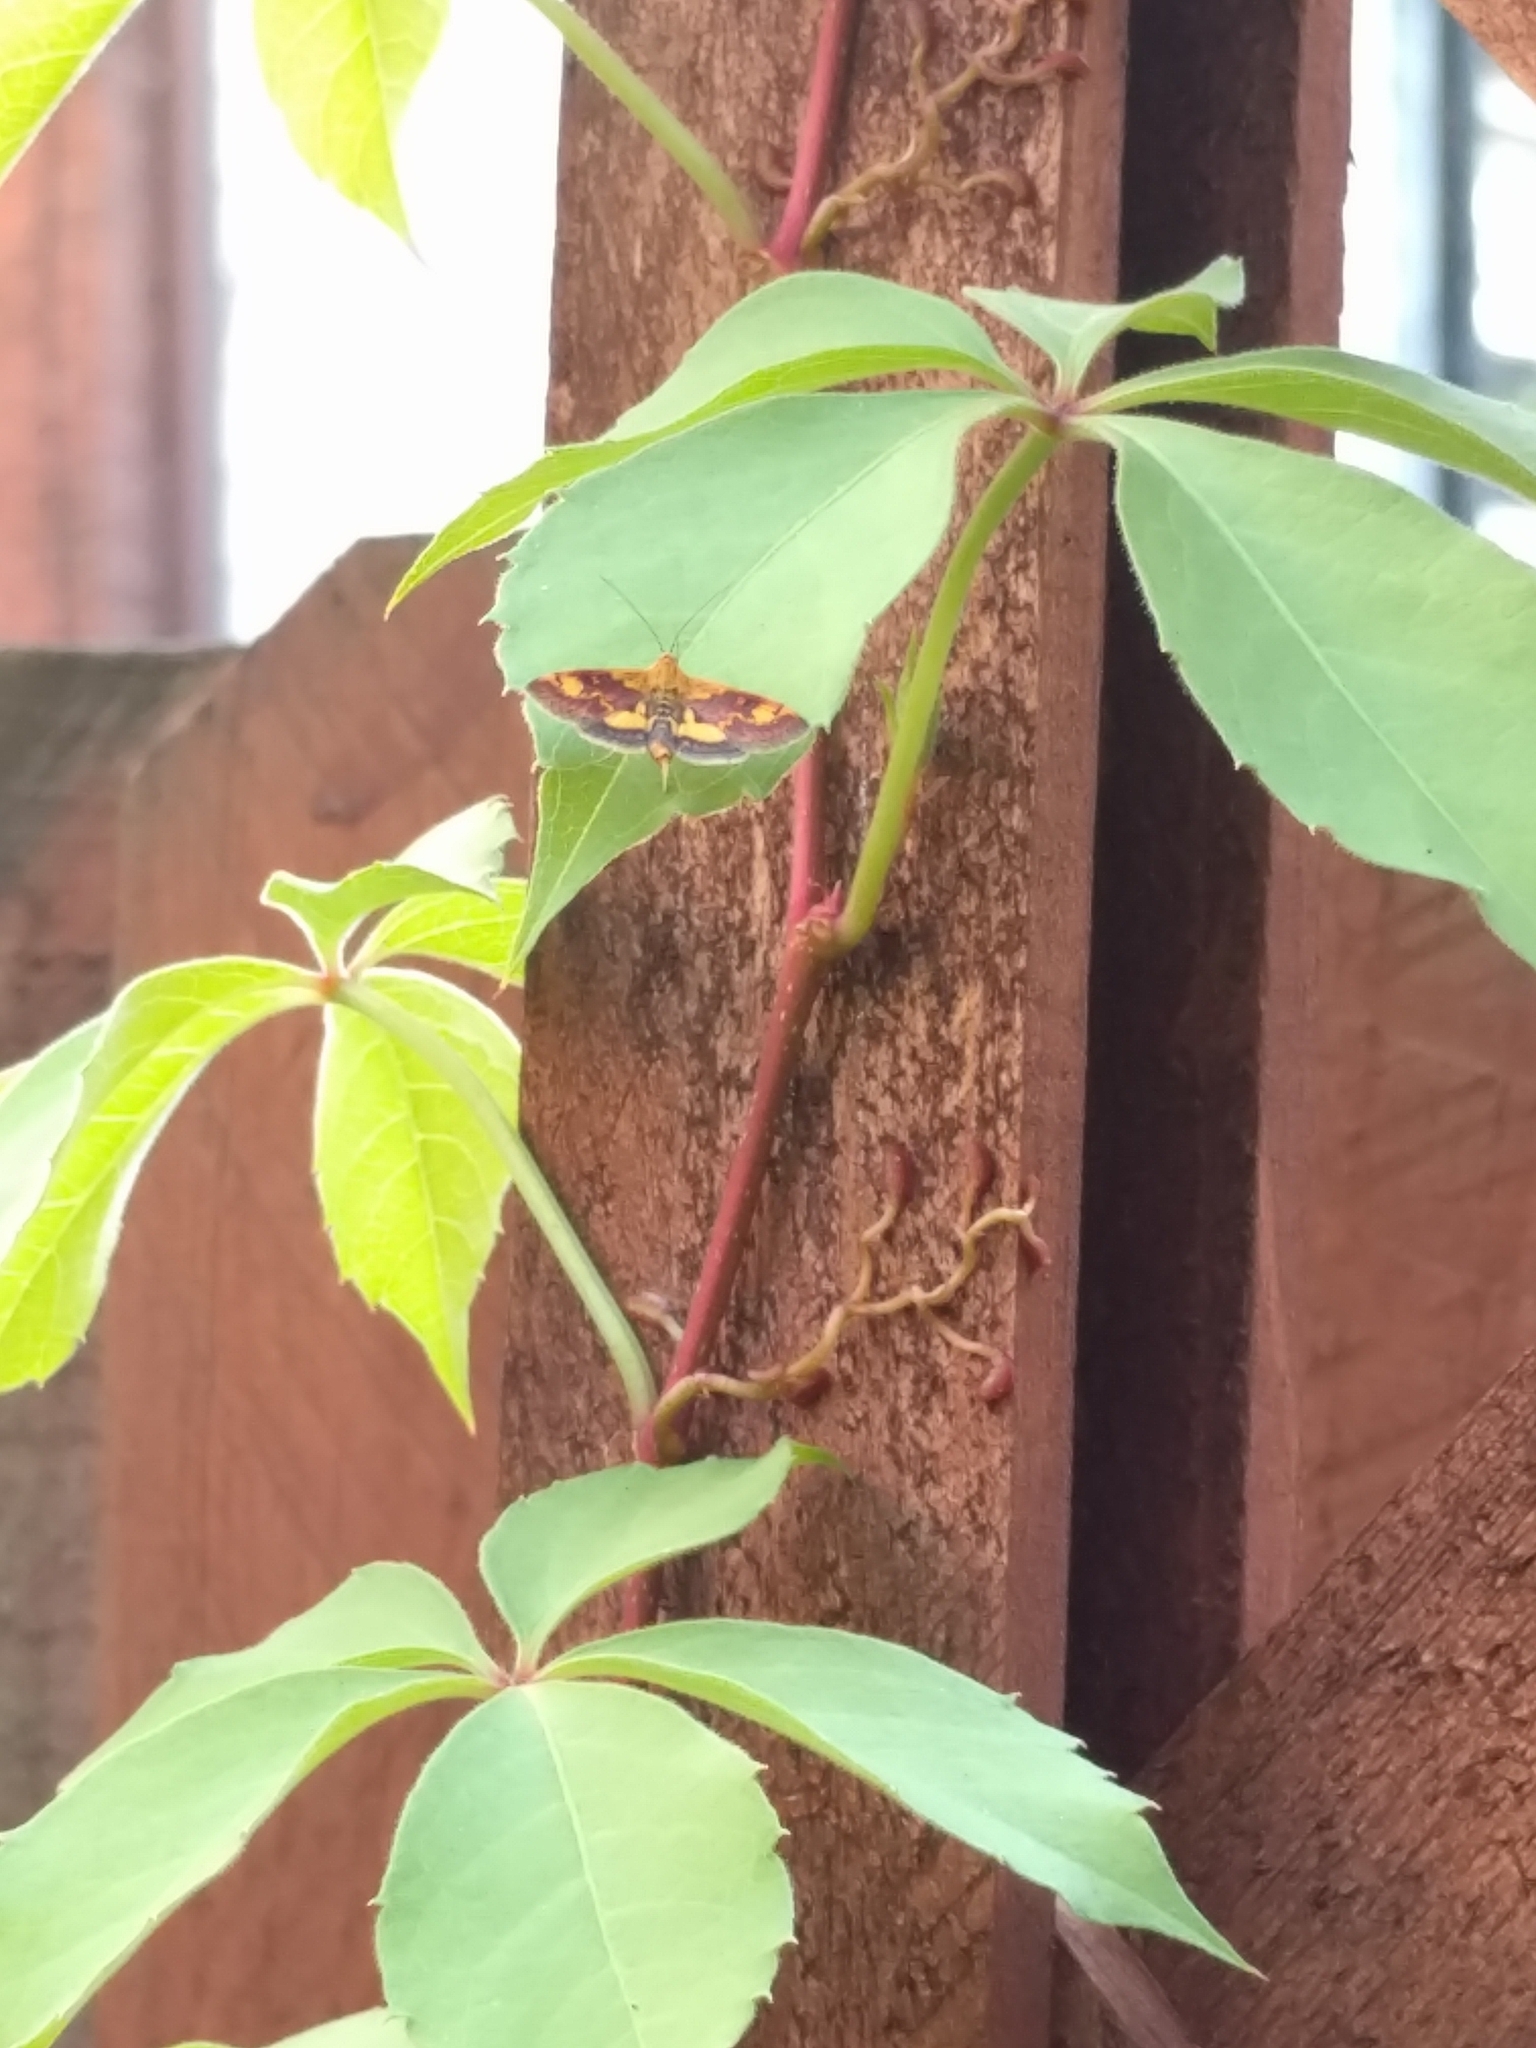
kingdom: Animalia
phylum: Arthropoda
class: Insecta
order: Lepidoptera
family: Crambidae
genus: Pyrausta
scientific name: Pyrausta orphisalis
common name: Orange mint moth
